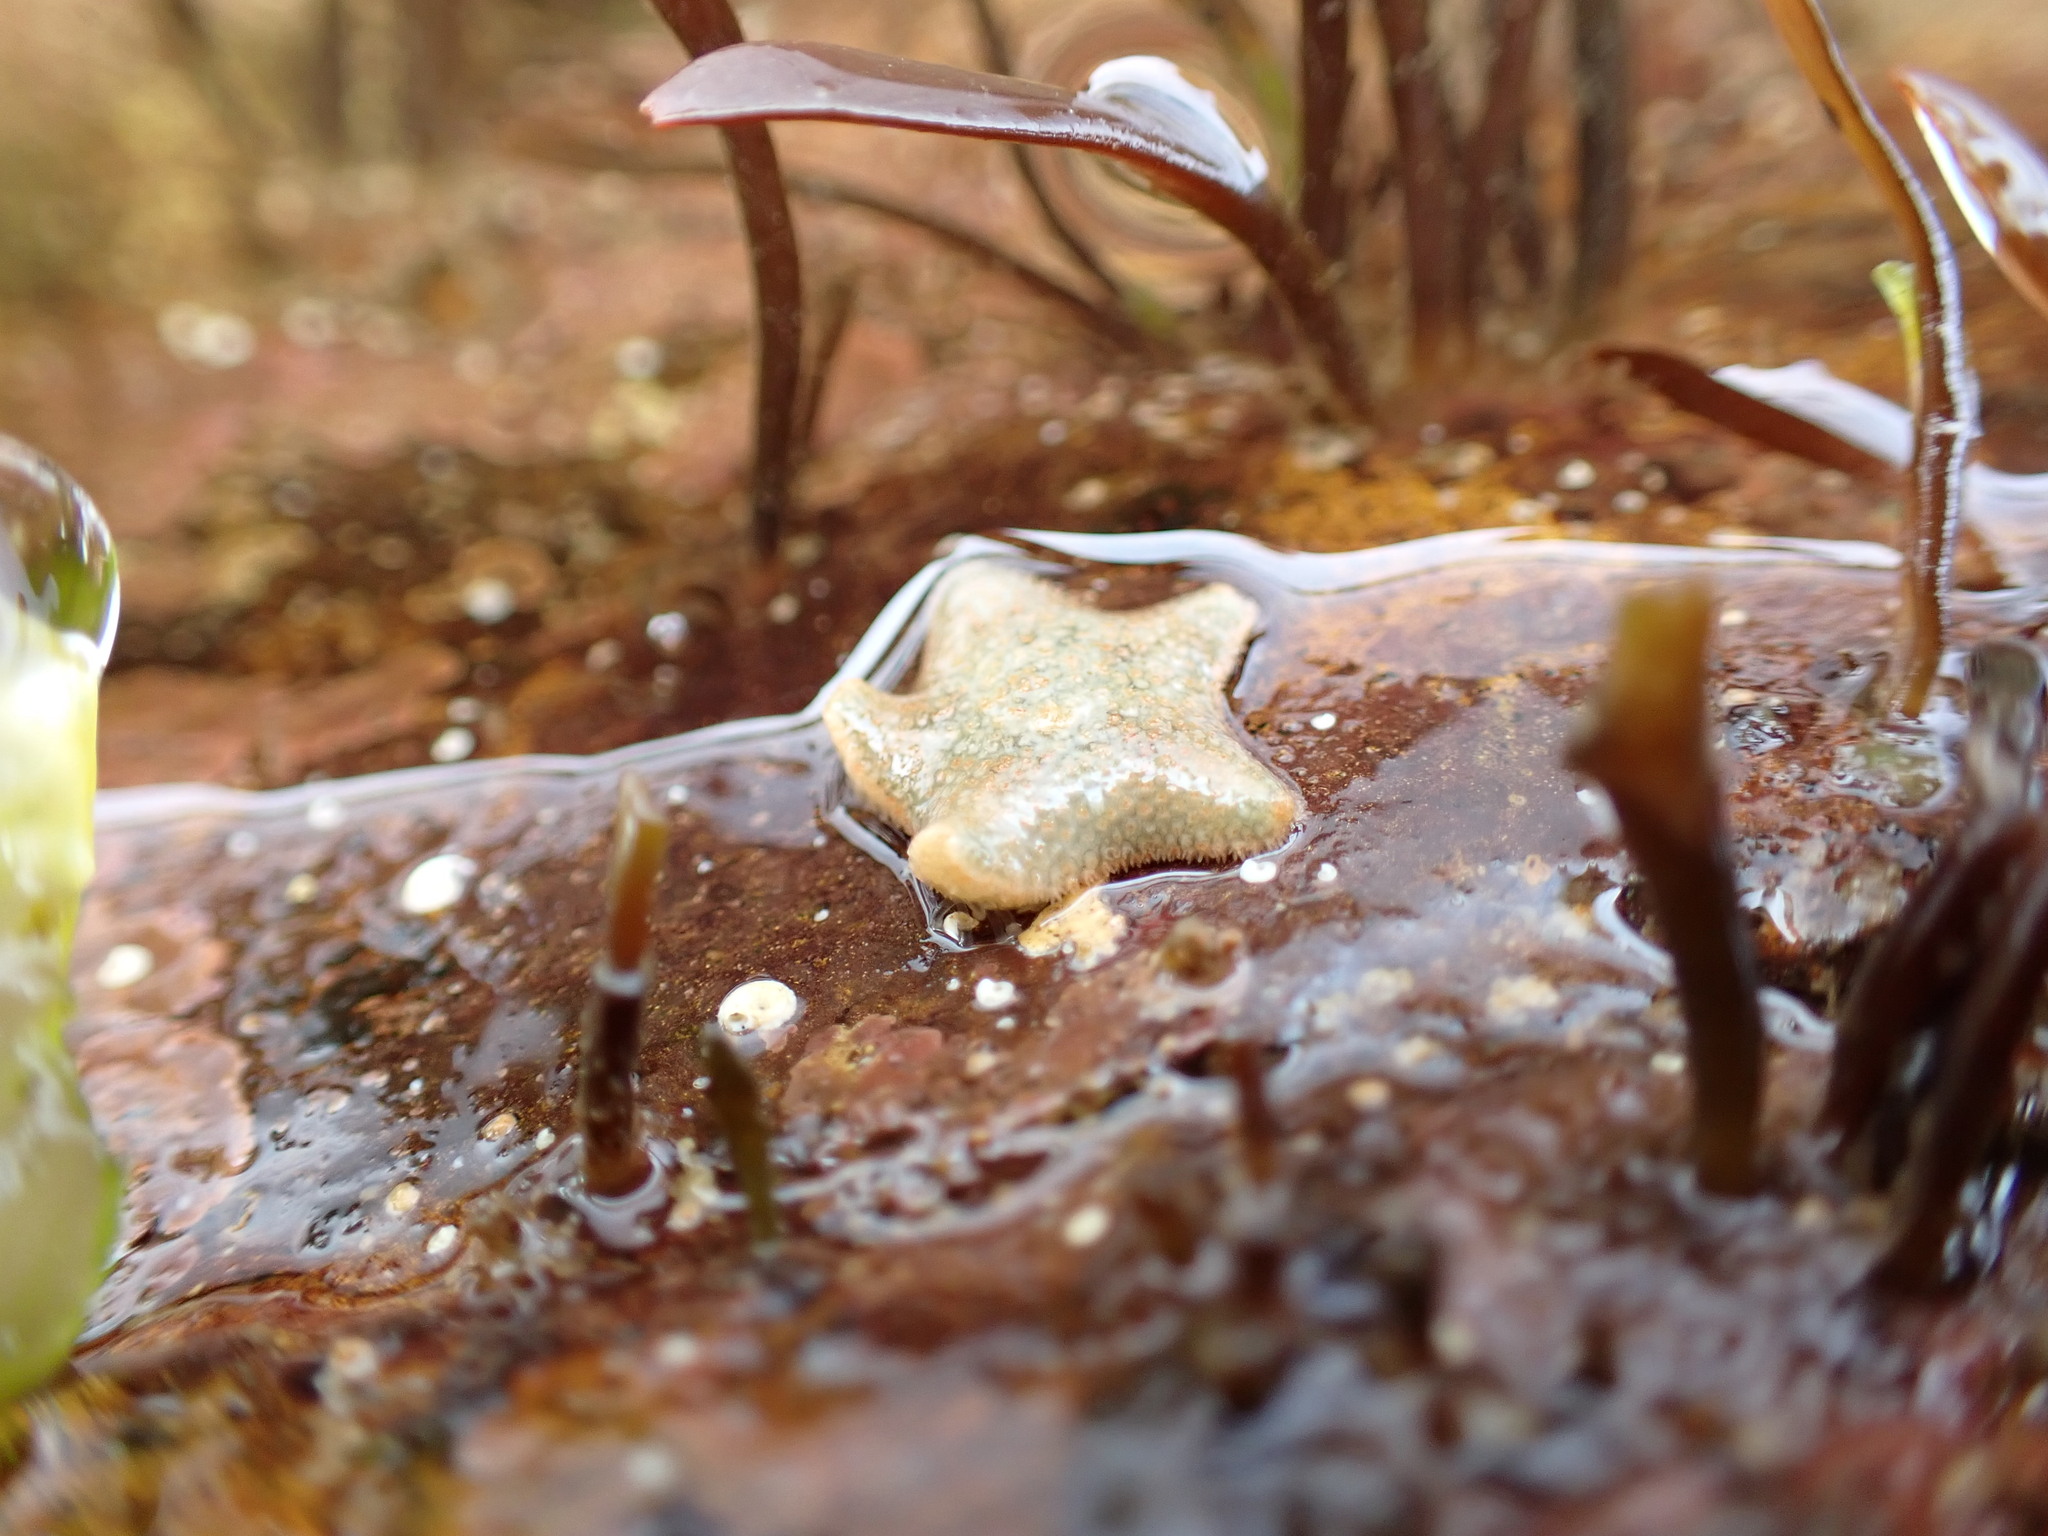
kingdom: Animalia
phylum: Echinodermata
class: Asteroidea
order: Valvatida
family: Asterinidae
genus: Asterina
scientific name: Asterina gibbosa
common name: Cushion star
